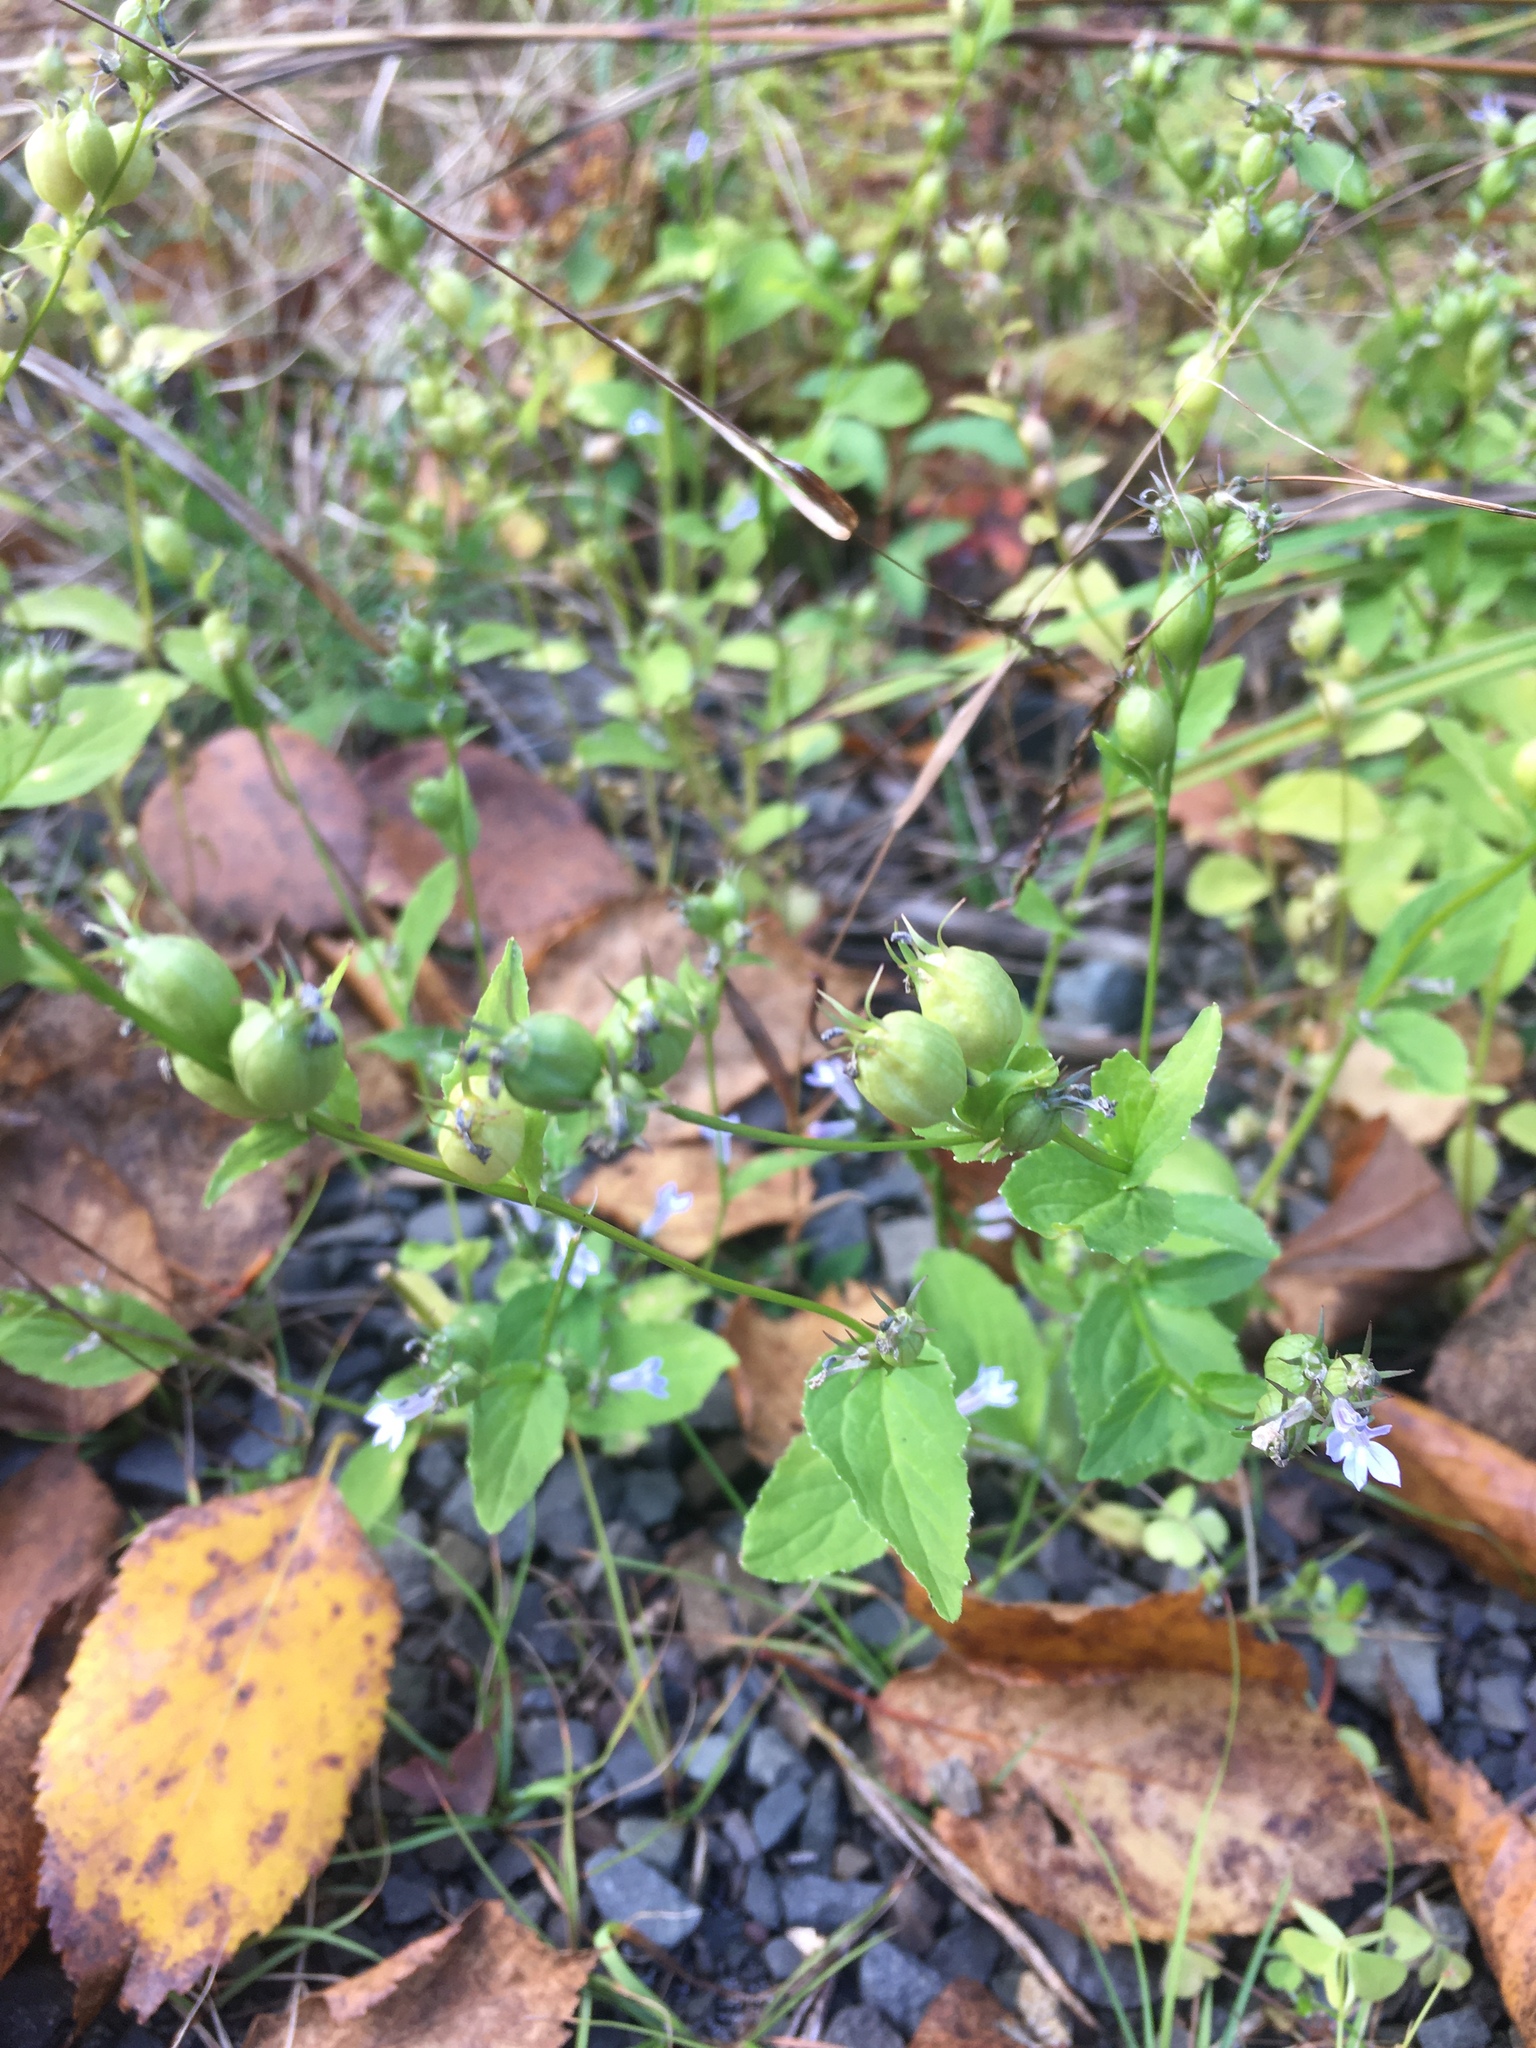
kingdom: Plantae
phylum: Tracheophyta
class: Magnoliopsida
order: Asterales
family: Campanulaceae
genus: Lobelia
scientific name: Lobelia inflata
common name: Indian tobacco
